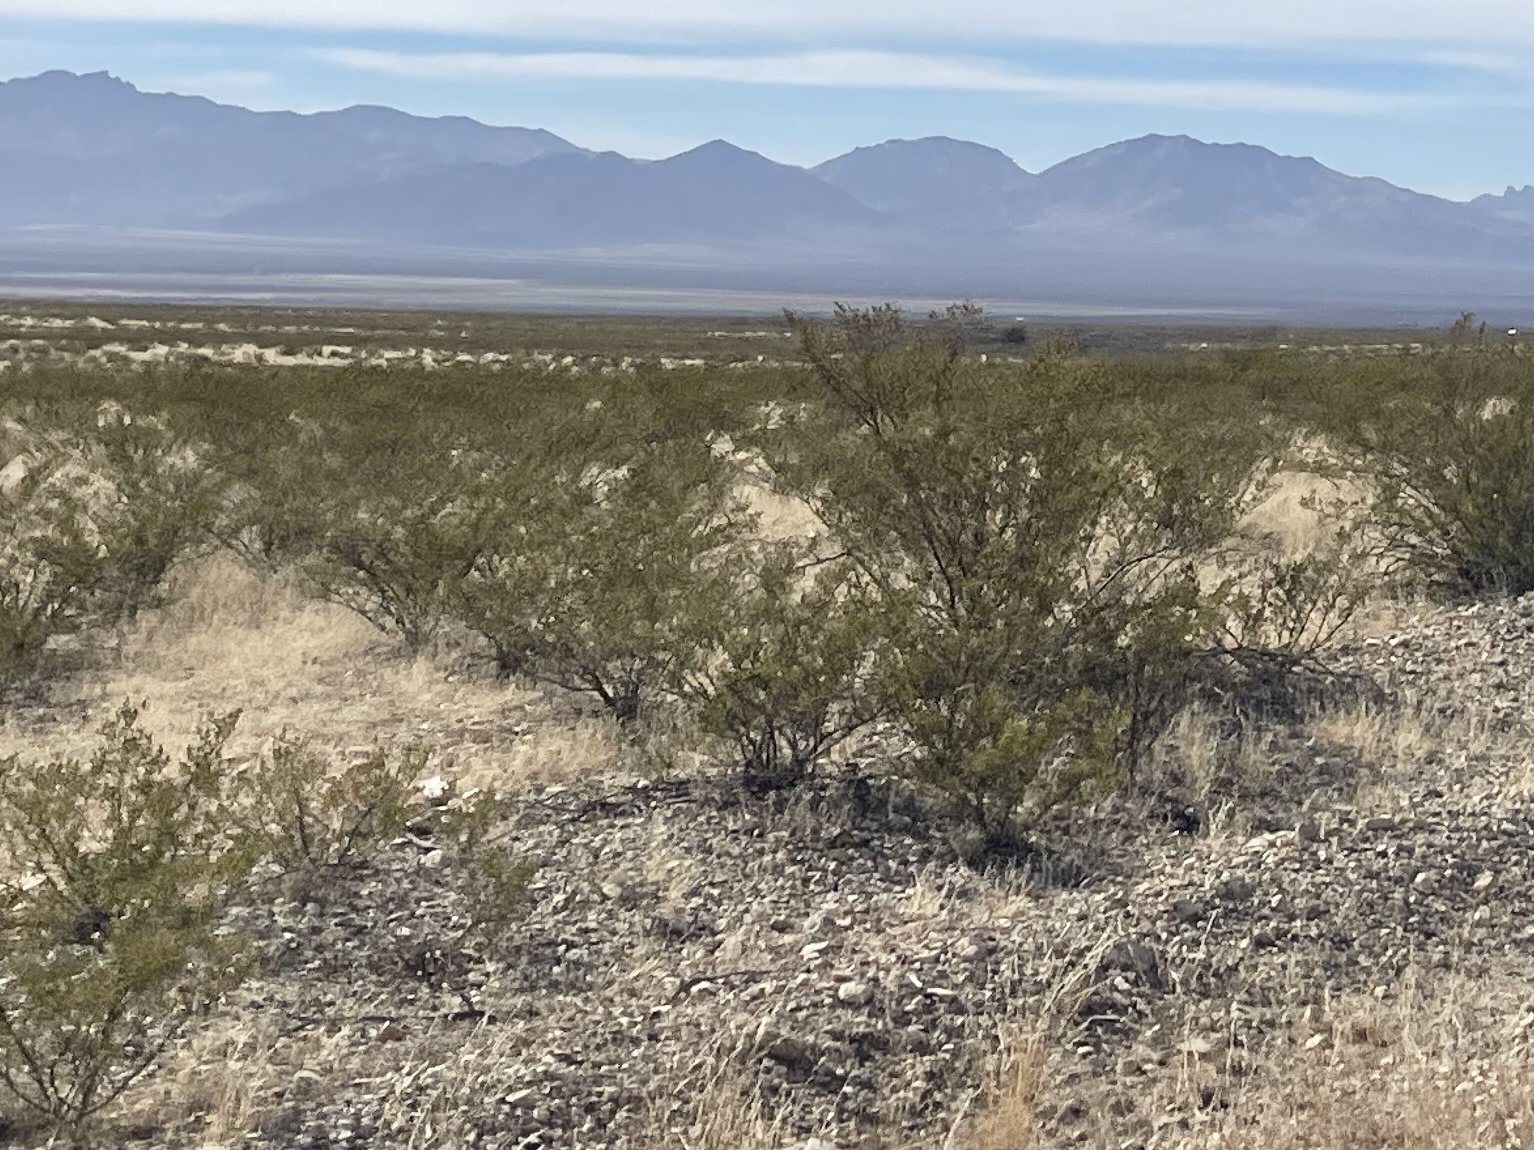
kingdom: Plantae
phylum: Tracheophyta
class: Magnoliopsida
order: Zygophyllales
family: Zygophyllaceae
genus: Larrea
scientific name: Larrea tridentata
